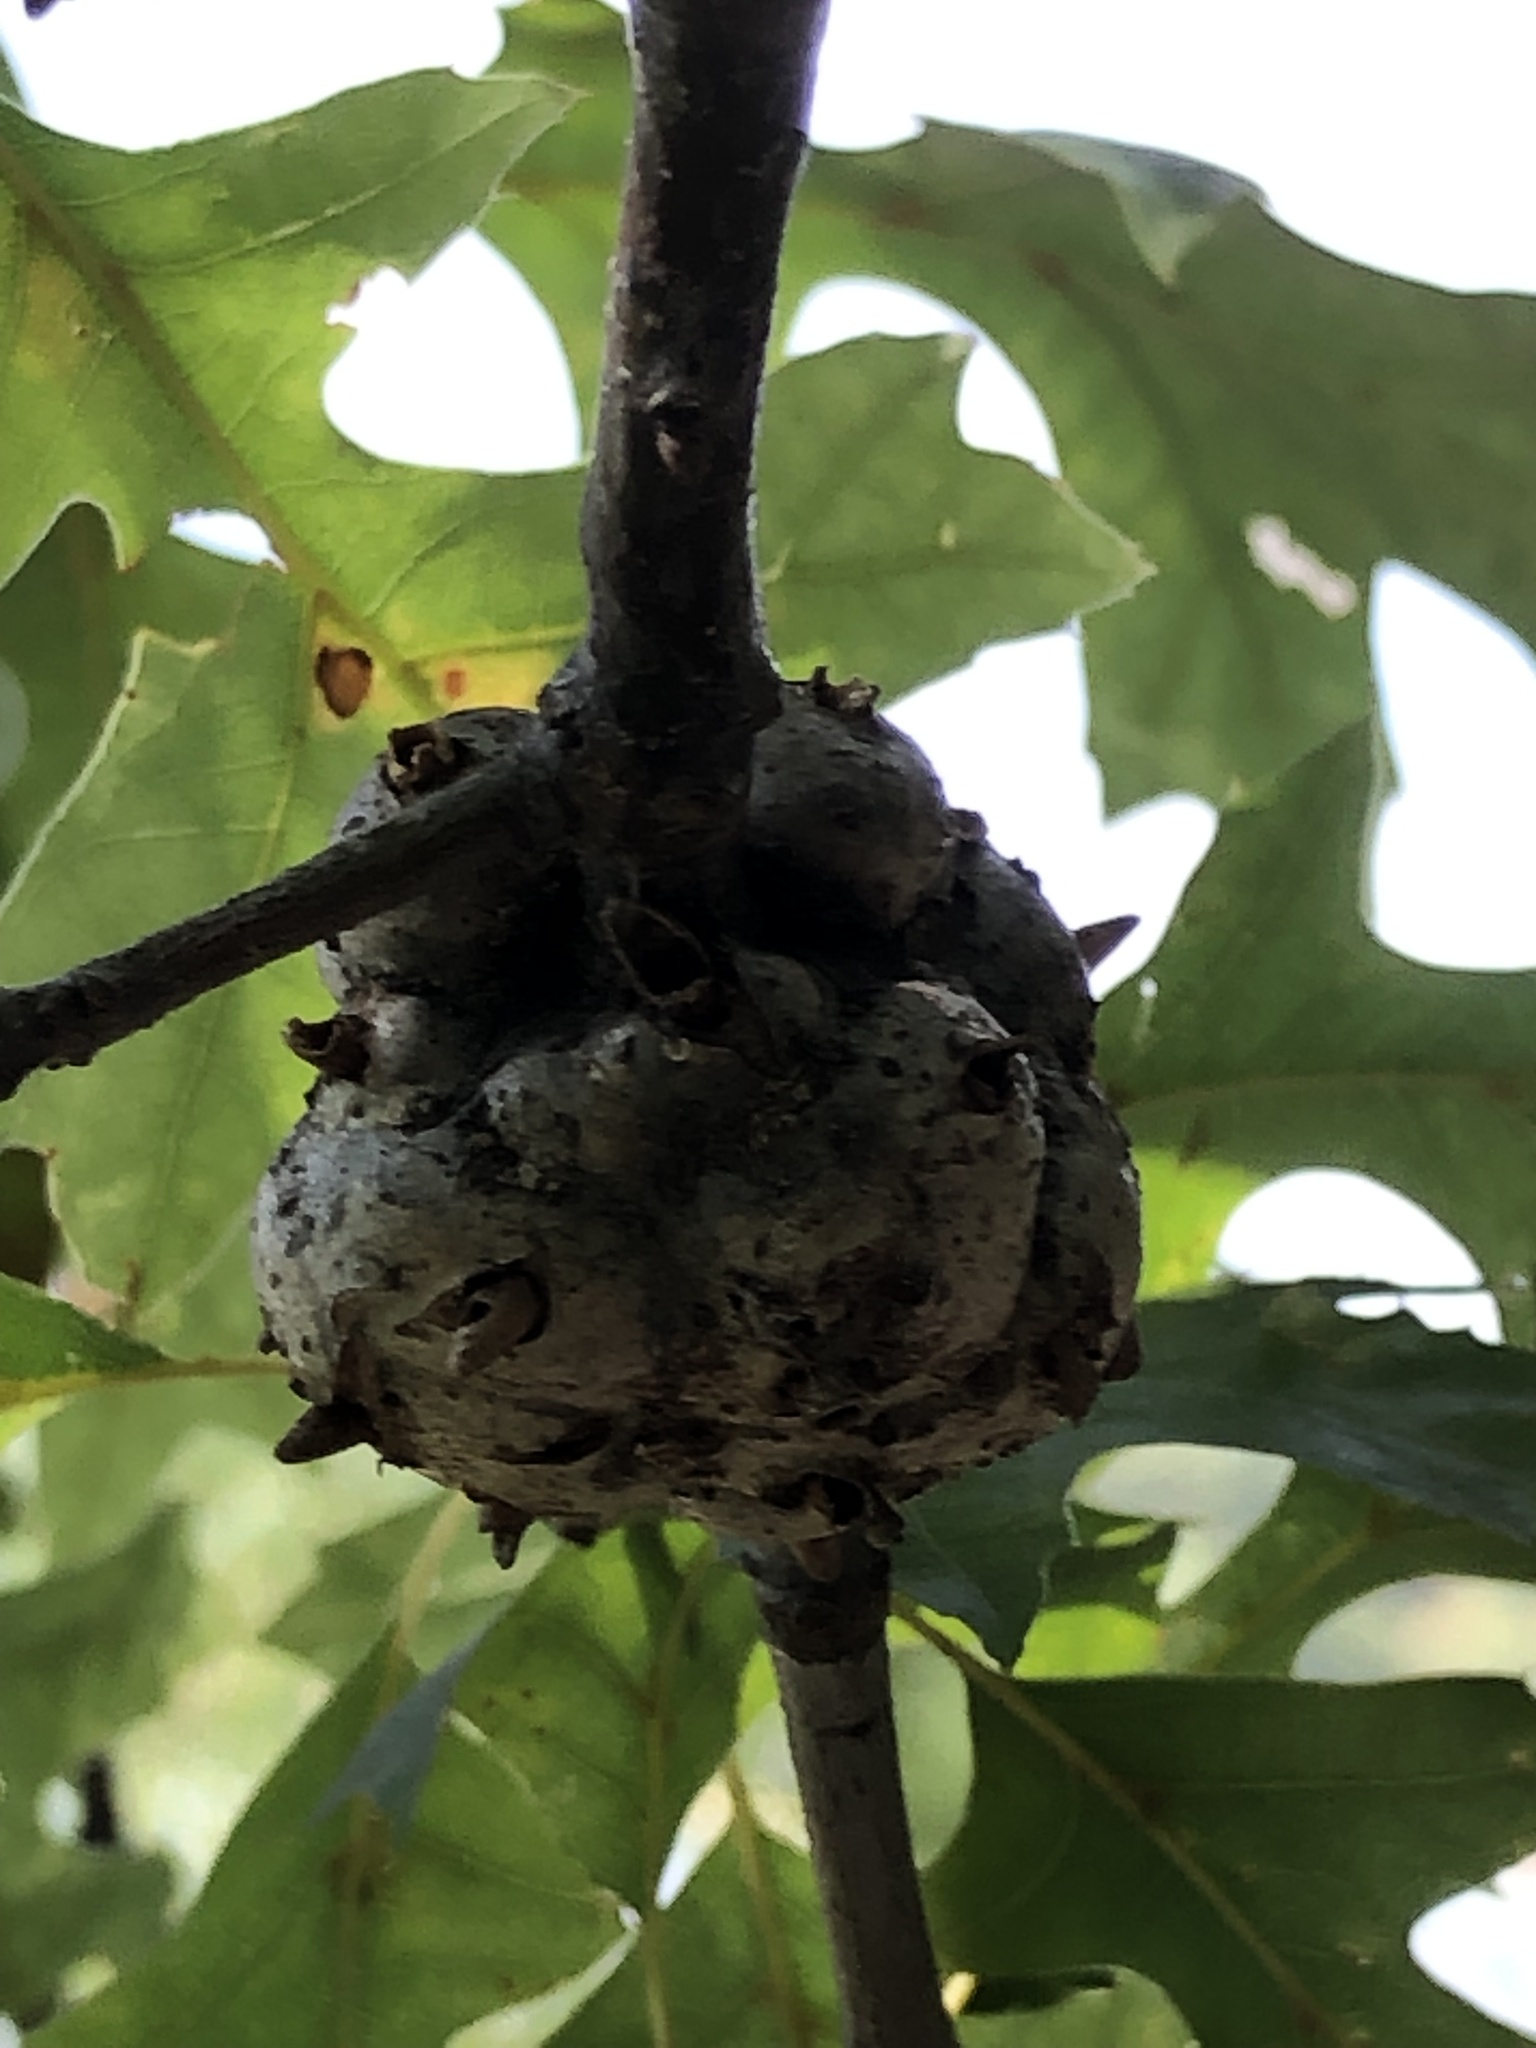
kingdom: Animalia
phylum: Arthropoda
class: Insecta
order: Hymenoptera
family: Cynipidae
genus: Callirhytis
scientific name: Callirhytis
